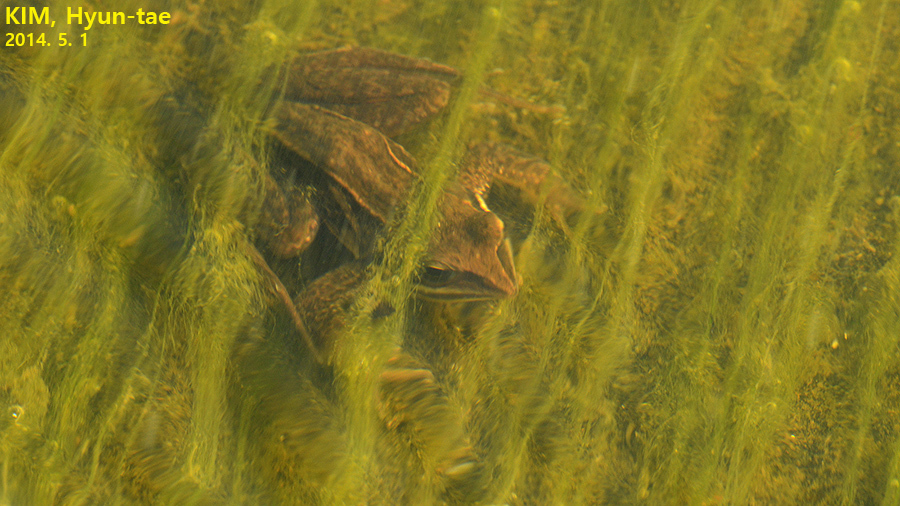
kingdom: Animalia
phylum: Chordata
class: Amphibia
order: Anura
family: Ranidae
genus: Rana
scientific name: Rana coreana
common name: Korean brown frog
